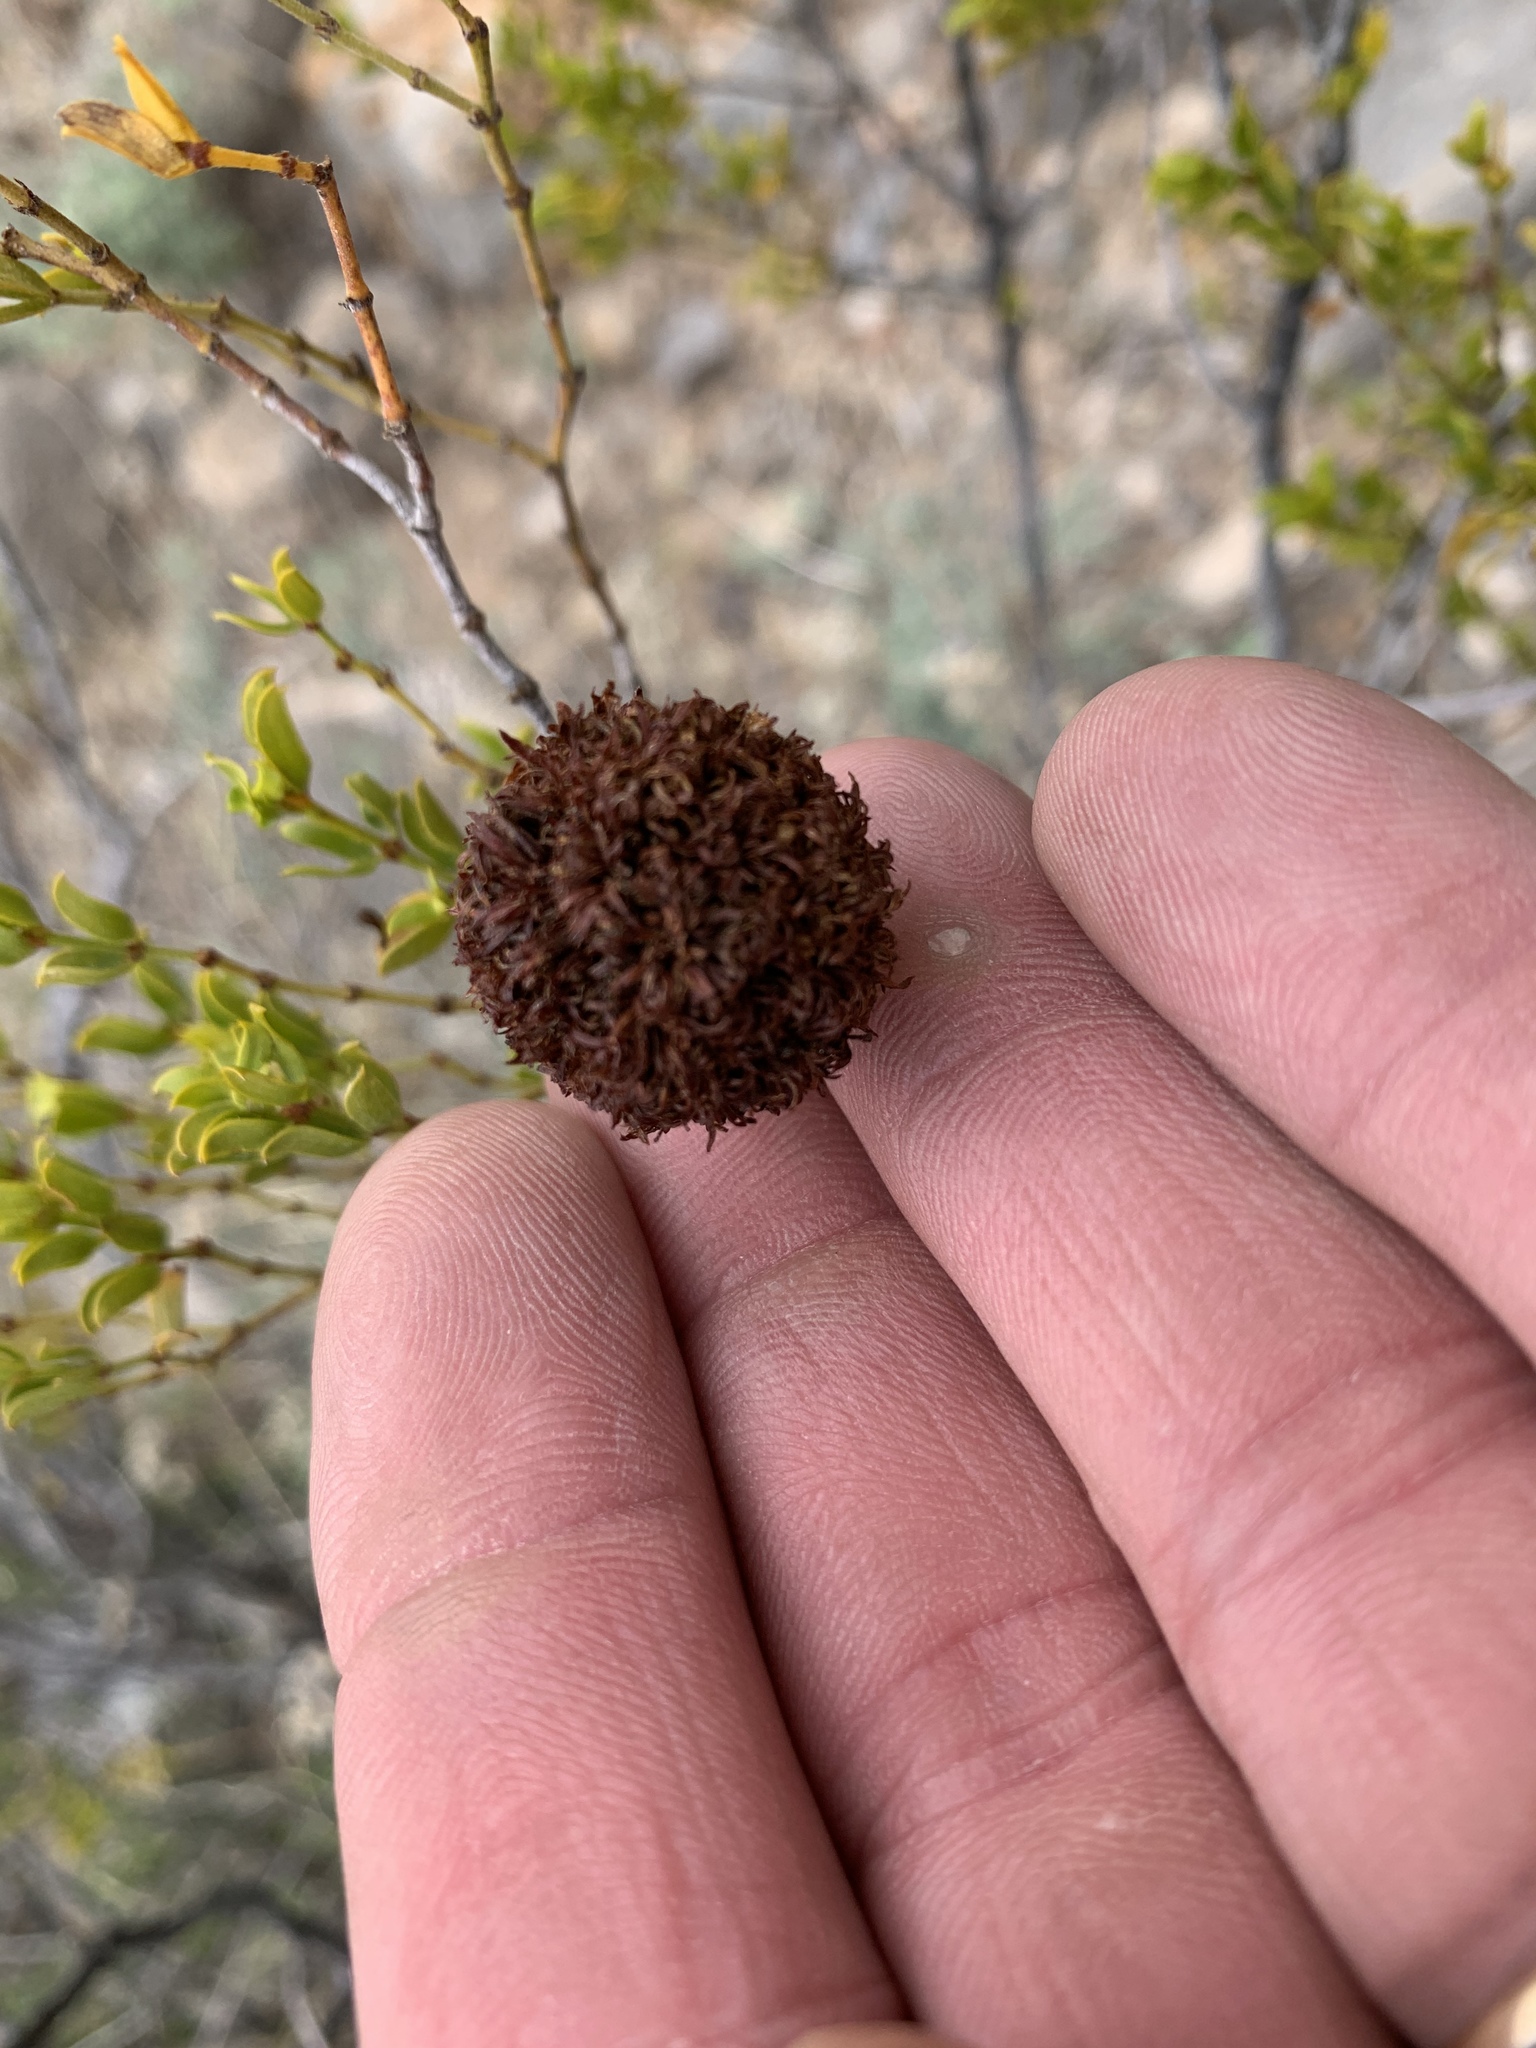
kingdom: Animalia
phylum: Arthropoda
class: Insecta
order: Diptera
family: Cecidomyiidae
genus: Asphondylia
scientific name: Asphondylia auripila
